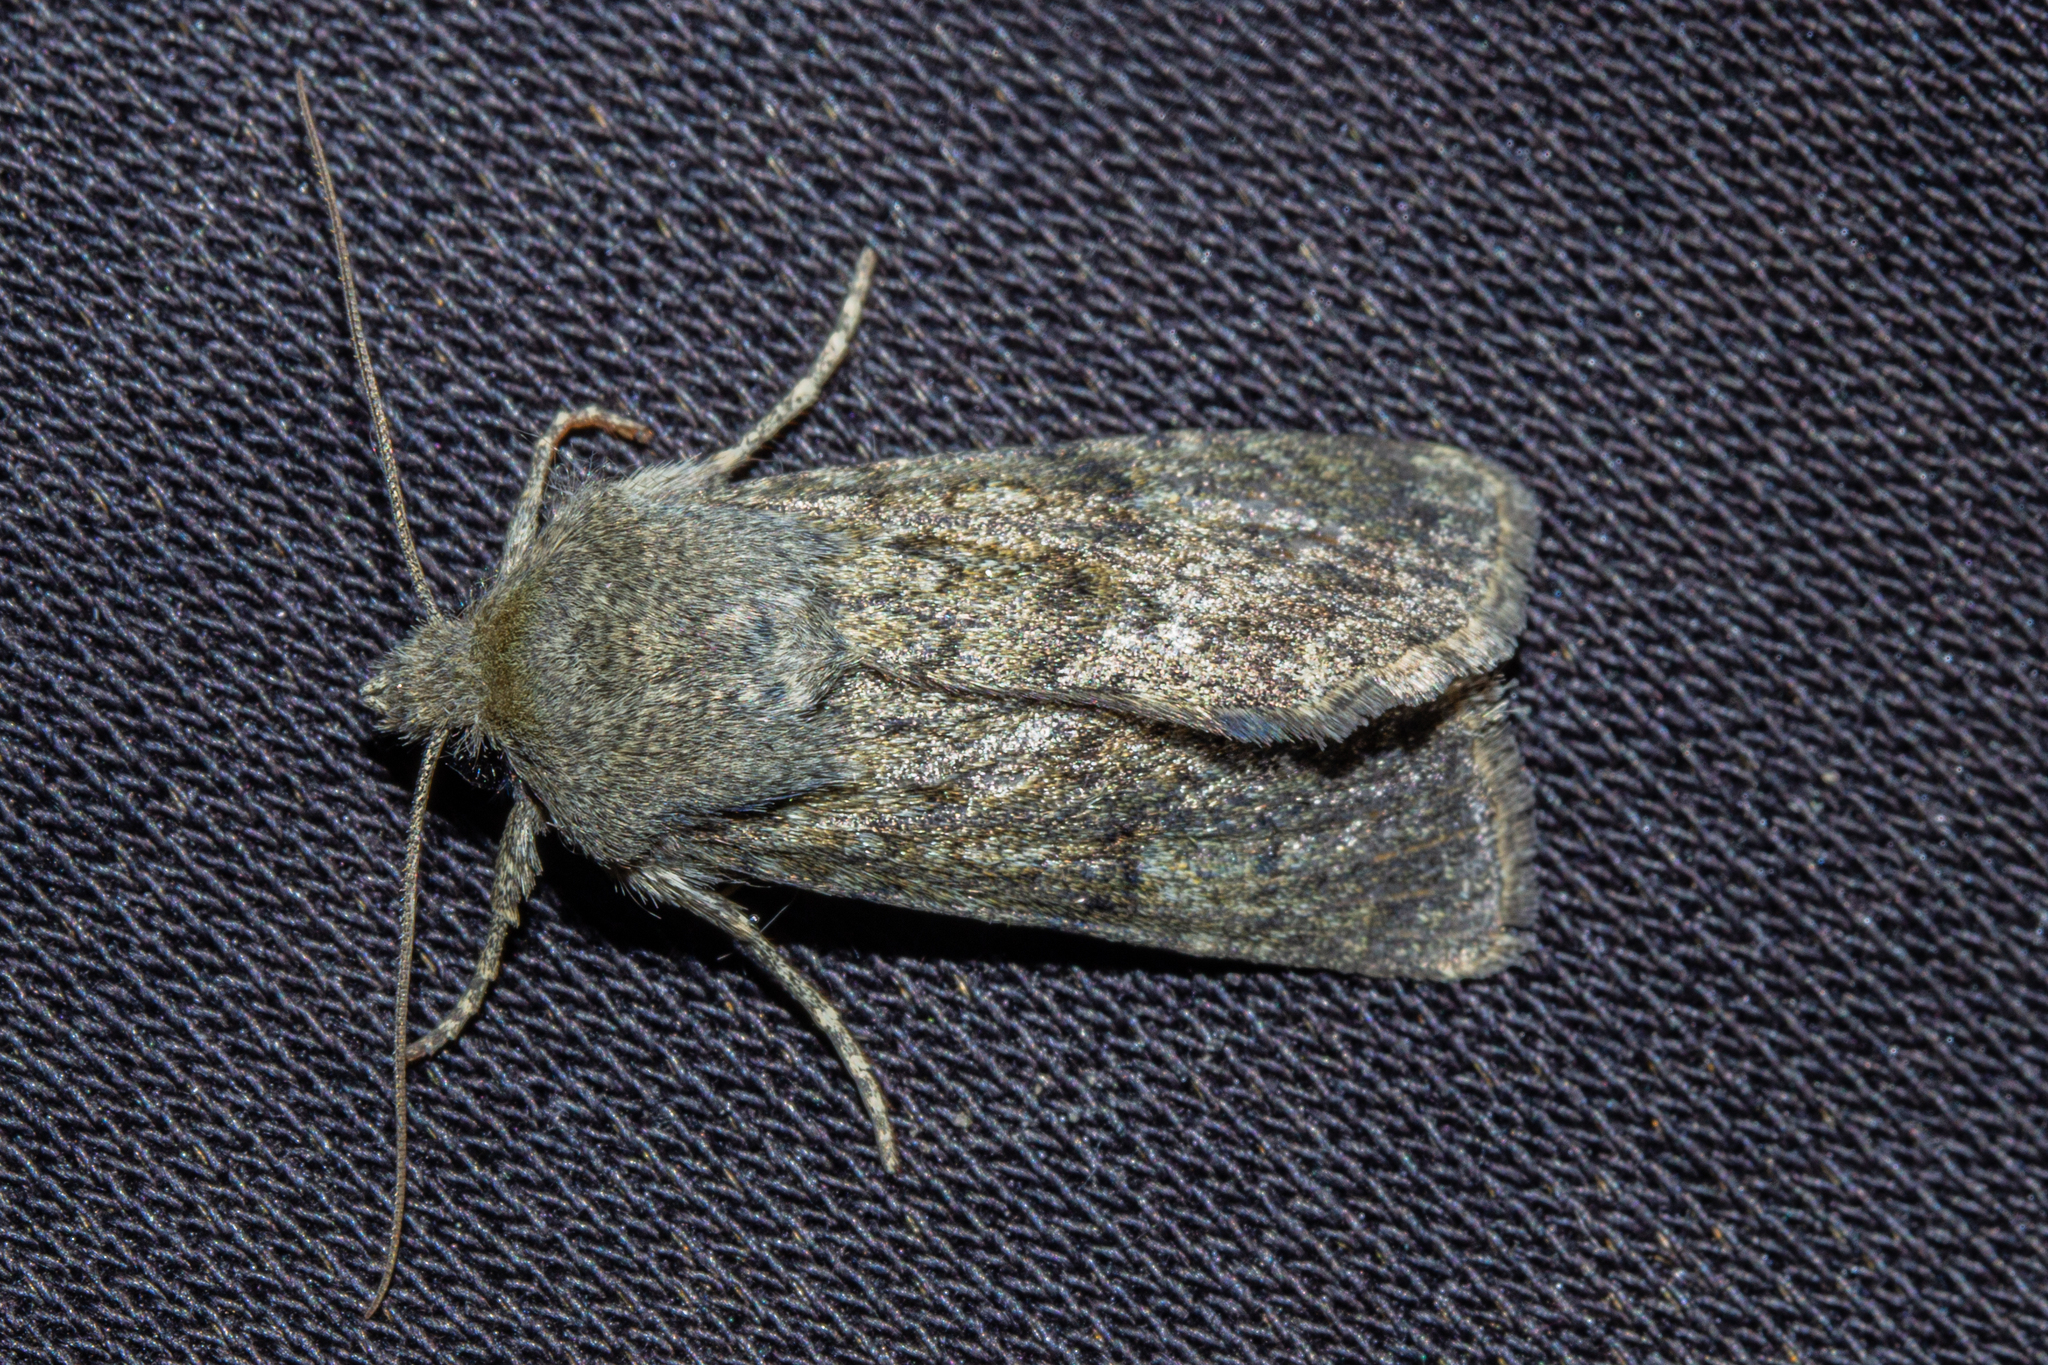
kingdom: Animalia
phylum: Arthropoda
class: Insecta
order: Lepidoptera
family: Noctuidae
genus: Ichneutica
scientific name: Ichneutica moderata
